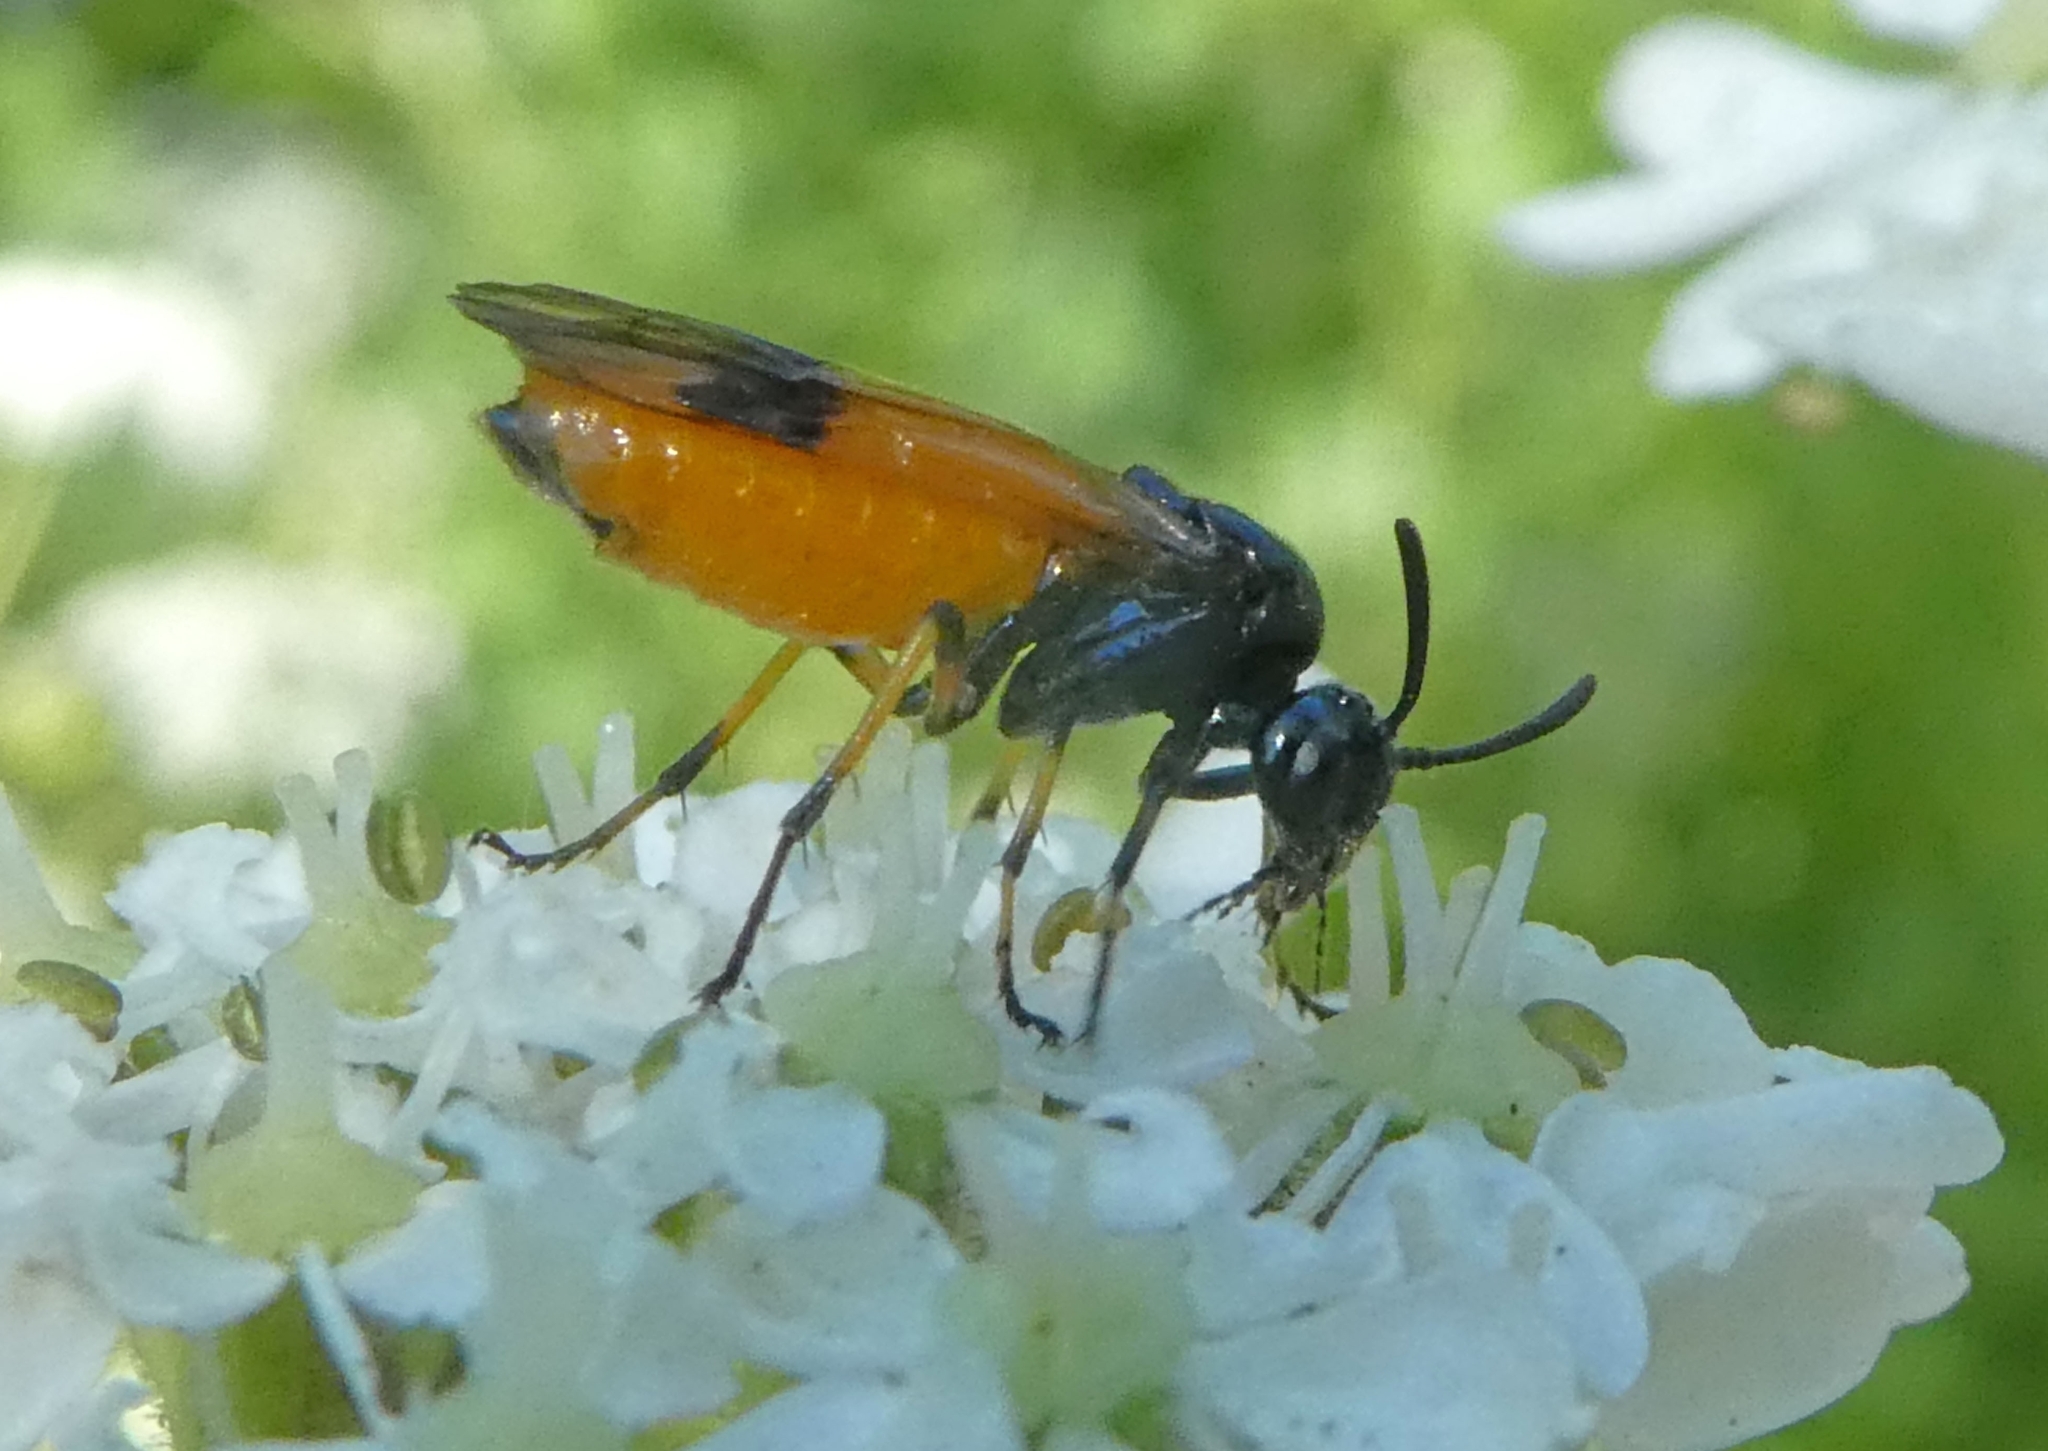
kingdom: Animalia
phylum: Arthropoda
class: Insecta
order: Hymenoptera
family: Argidae
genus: Arge
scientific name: Arge cyanocrocea
